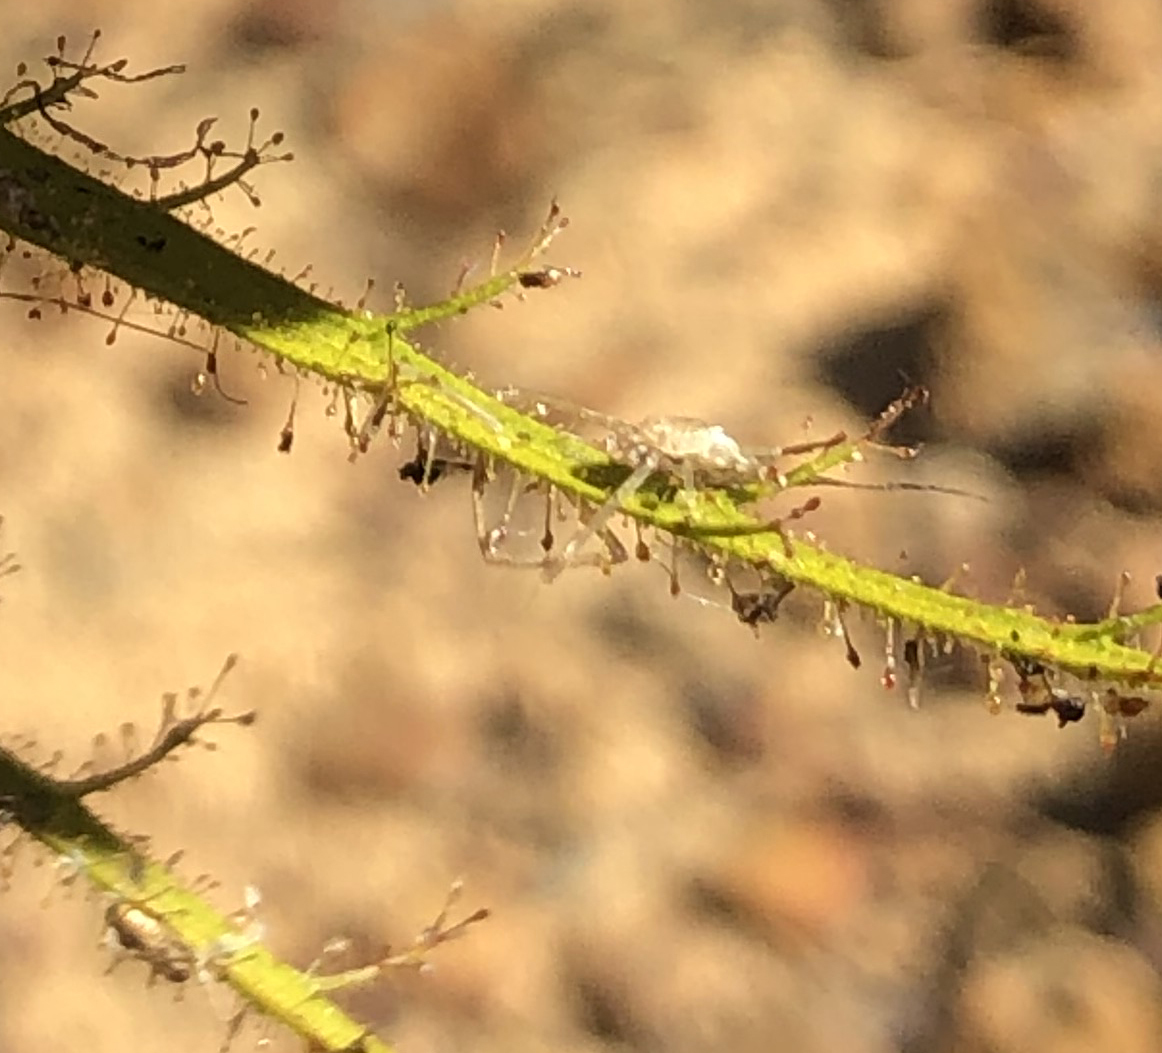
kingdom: Plantae
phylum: Tracheophyta
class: Magnoliopsida
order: Ericales
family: Roridulaceae
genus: Roridula
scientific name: Roridula dentata
